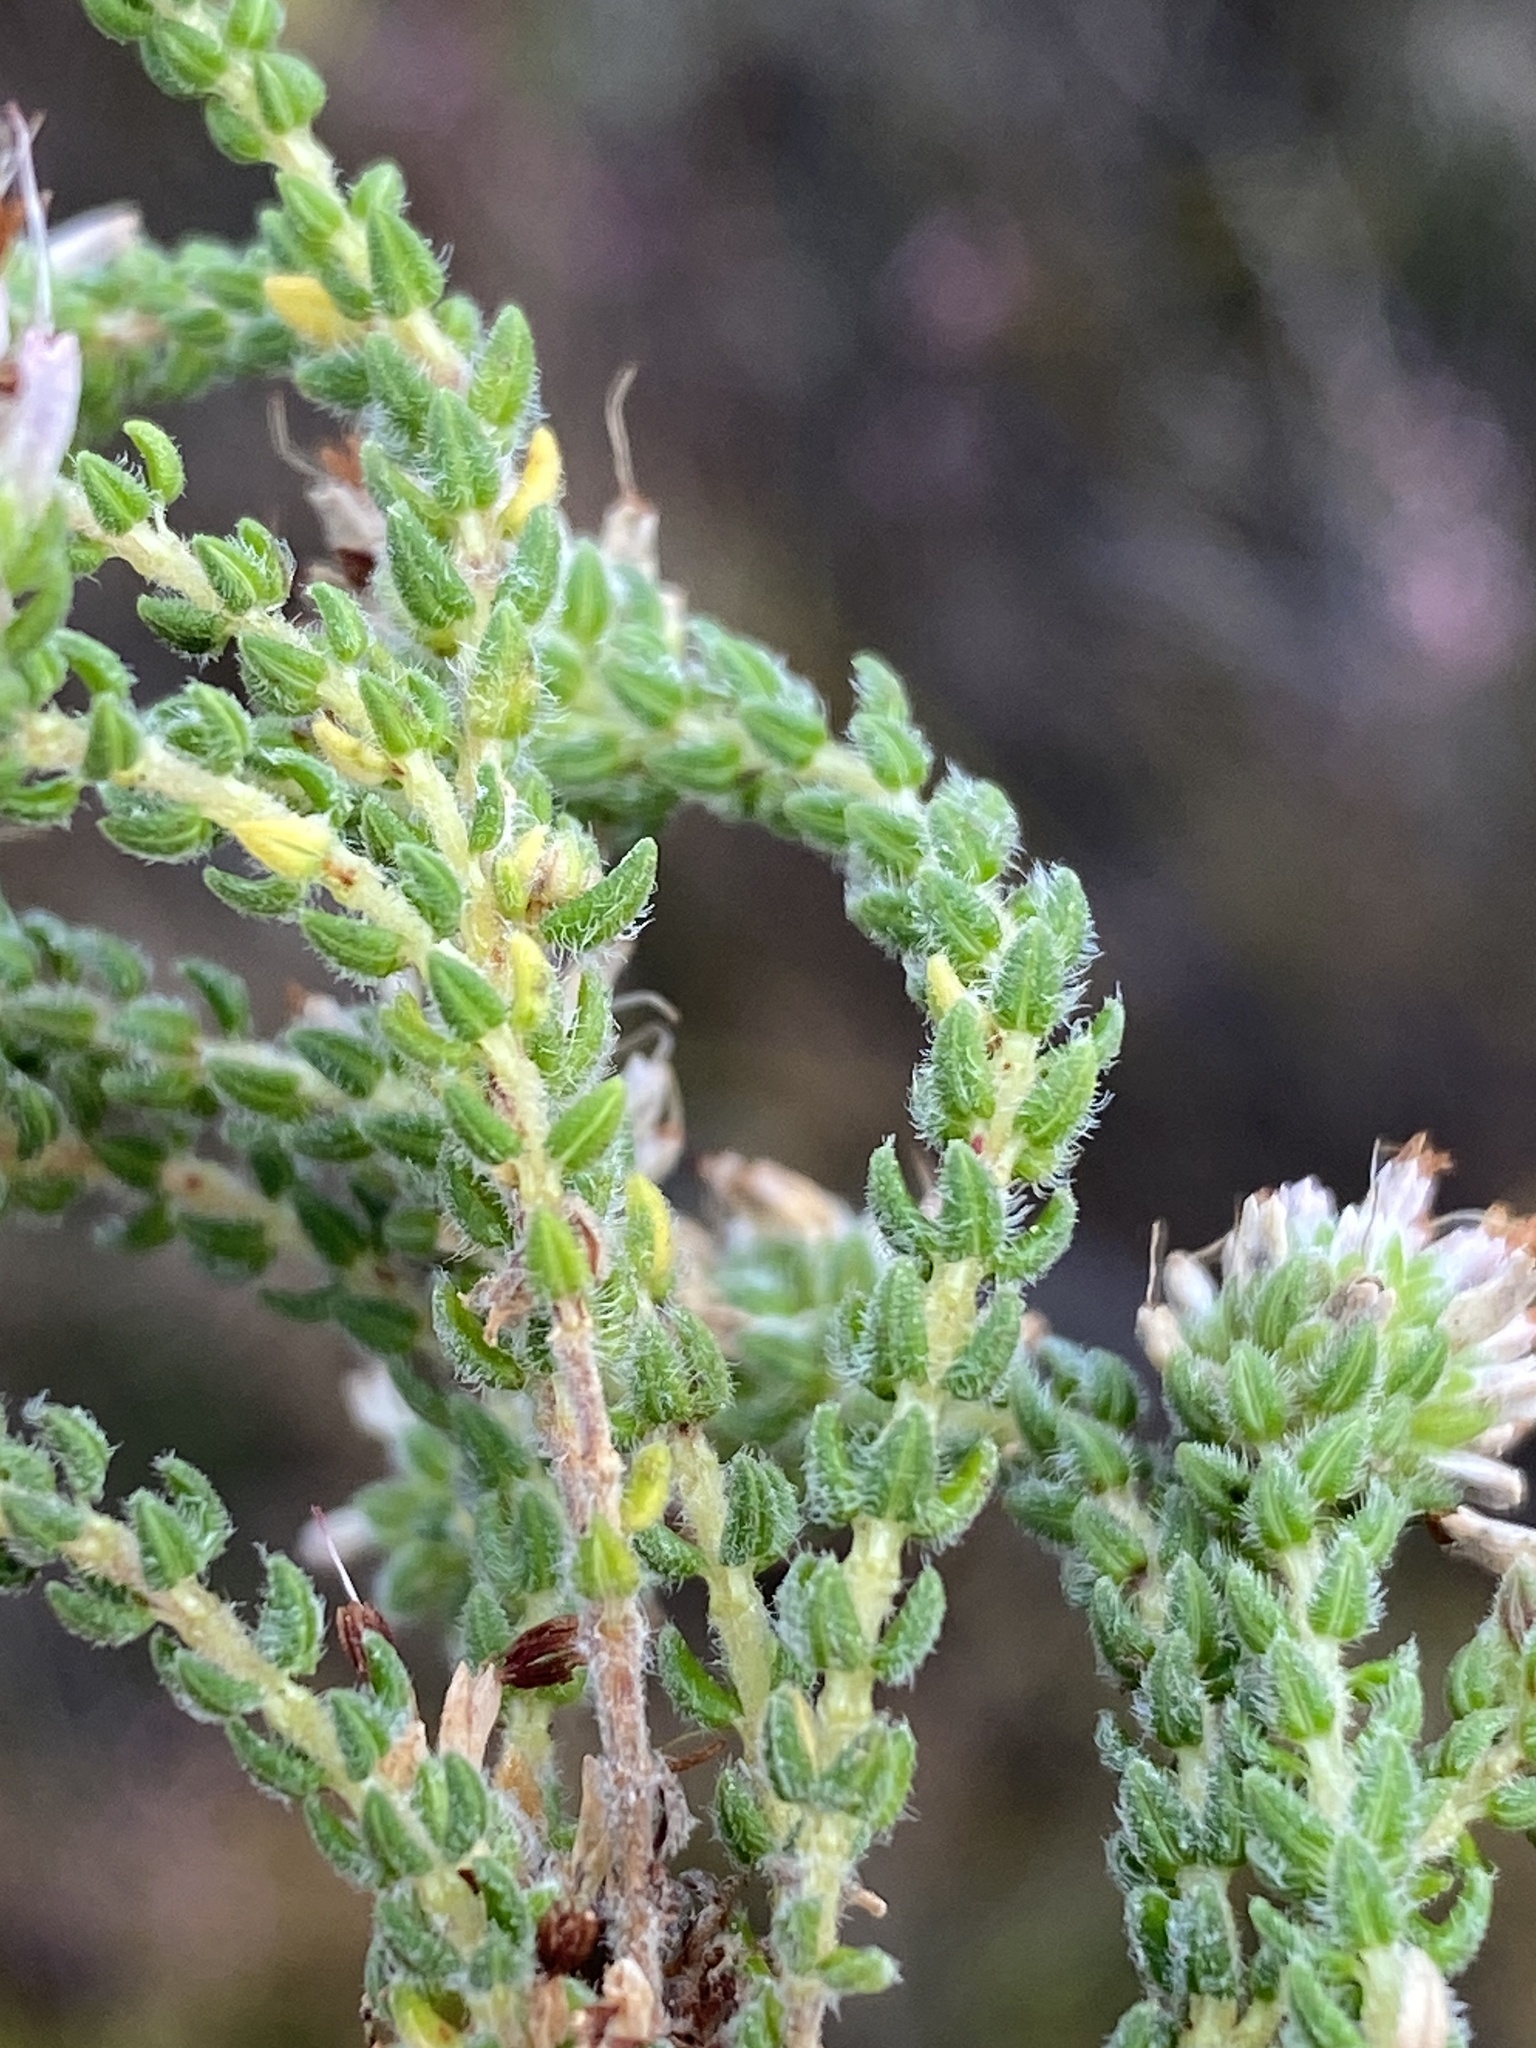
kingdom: Plantae
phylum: Tracheophyta
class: Magnoliopsida
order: Ericales
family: Ericaceae
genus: Erica
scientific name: Erica globiceps
